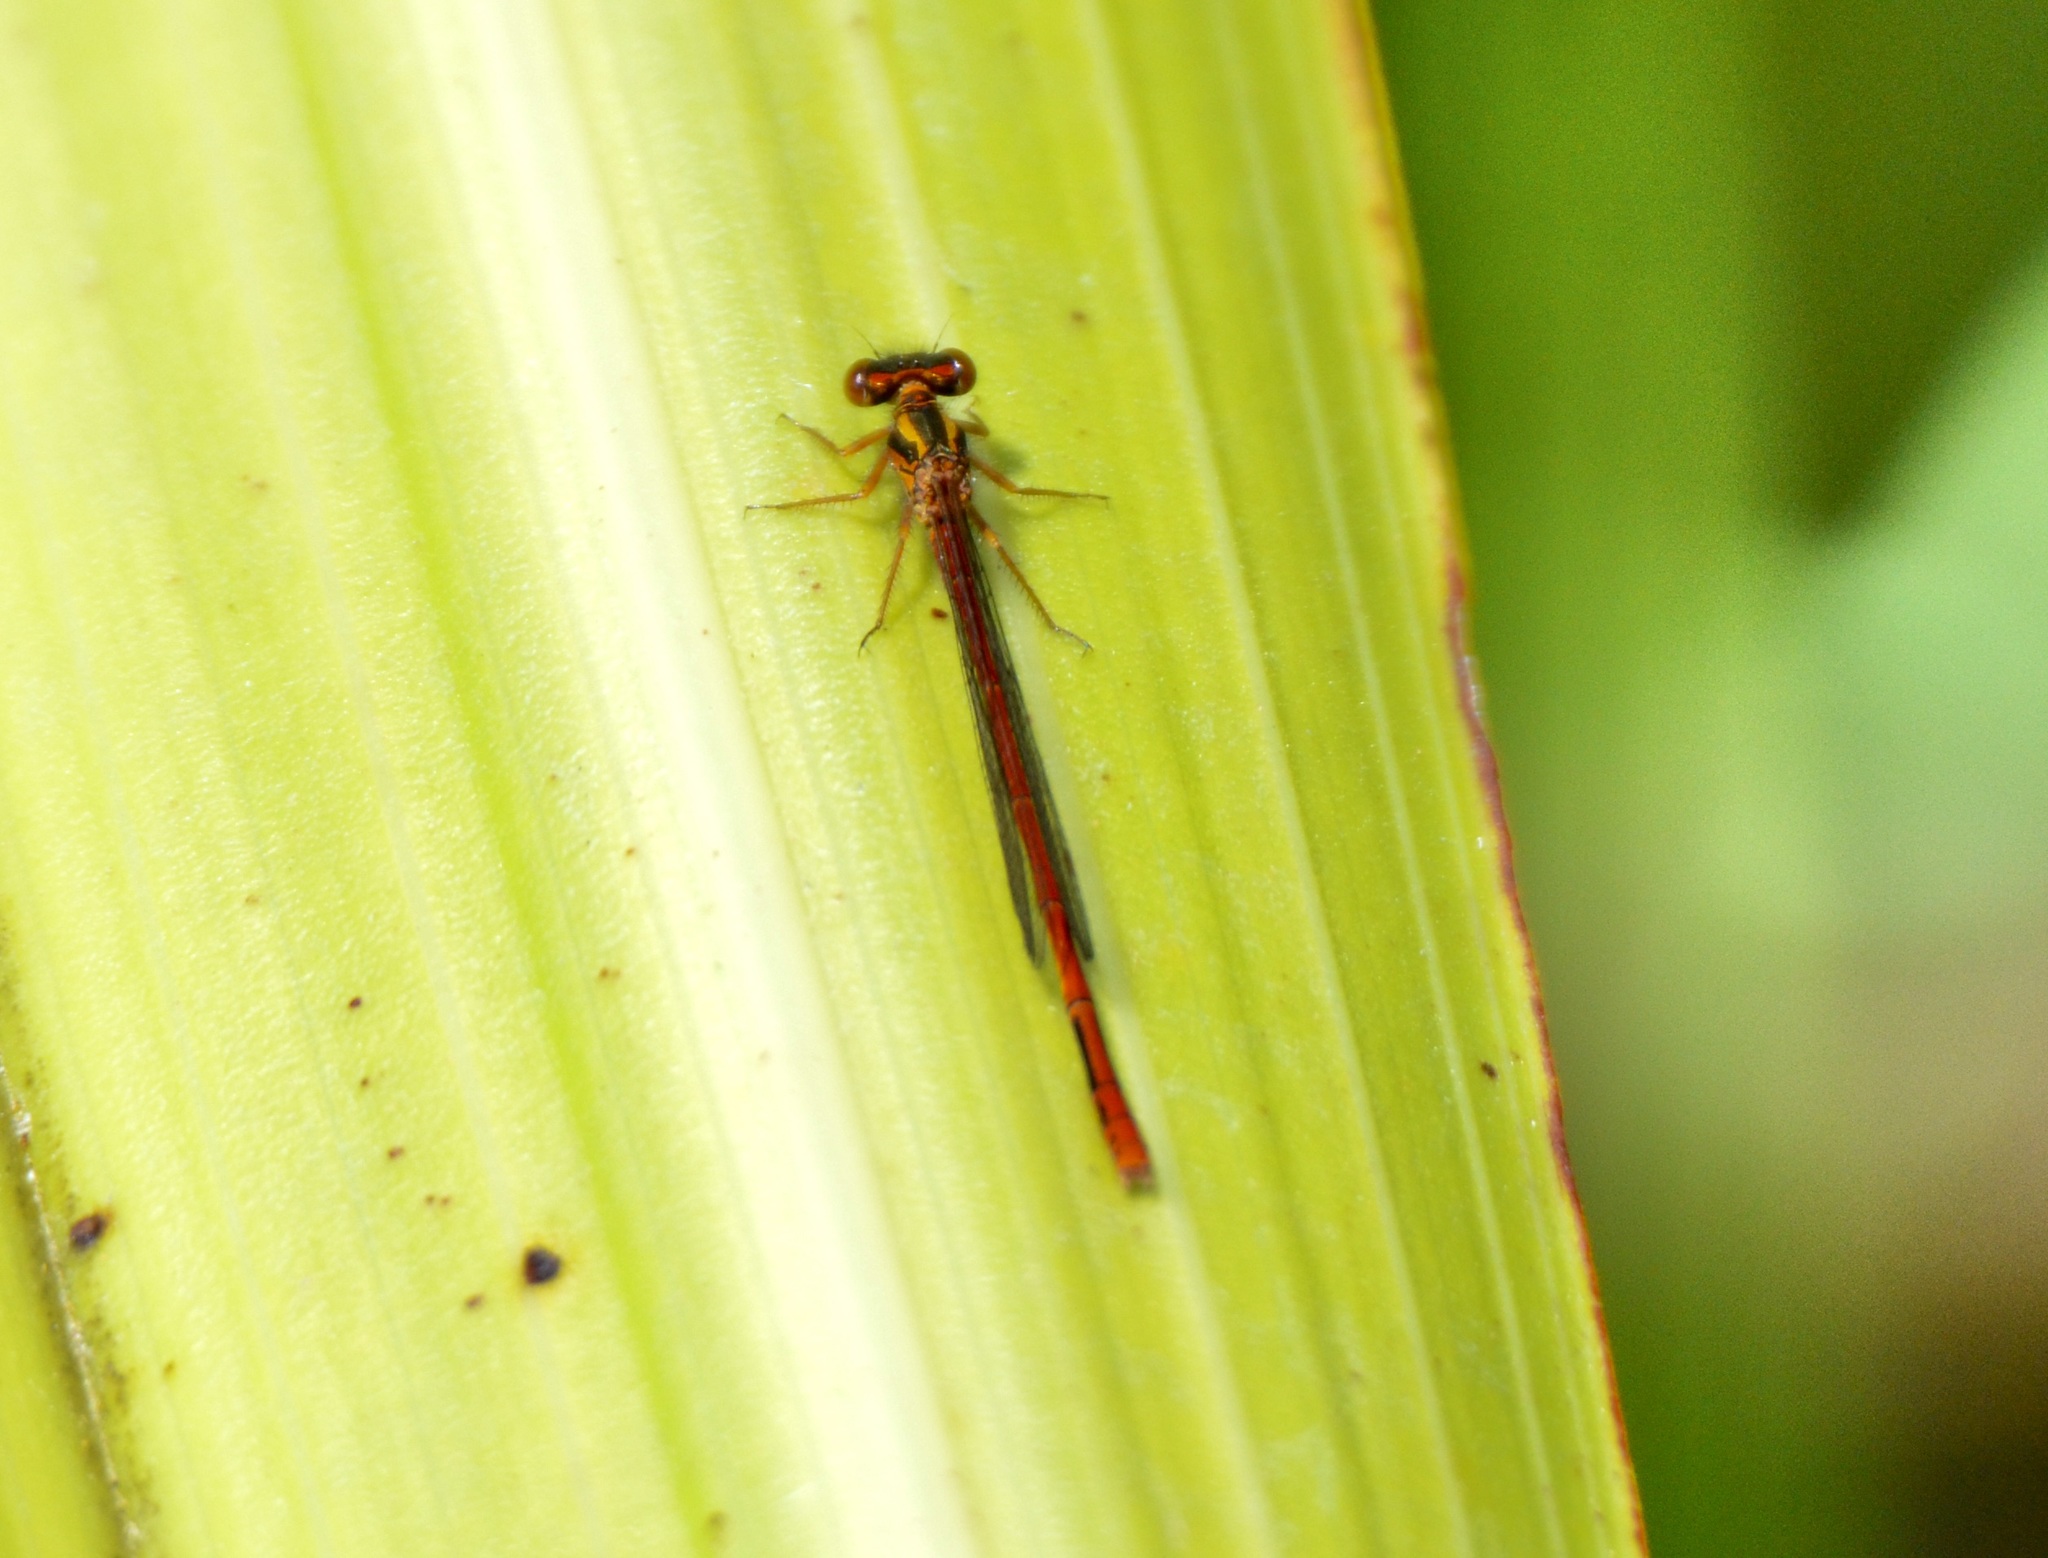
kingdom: Animalia
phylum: Arthropoda
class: Insecta
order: Odonata
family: Coenagrionidae
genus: Xanthocnemis
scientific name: Xanthocnemis zealandica
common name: Common redcoat damselfly
